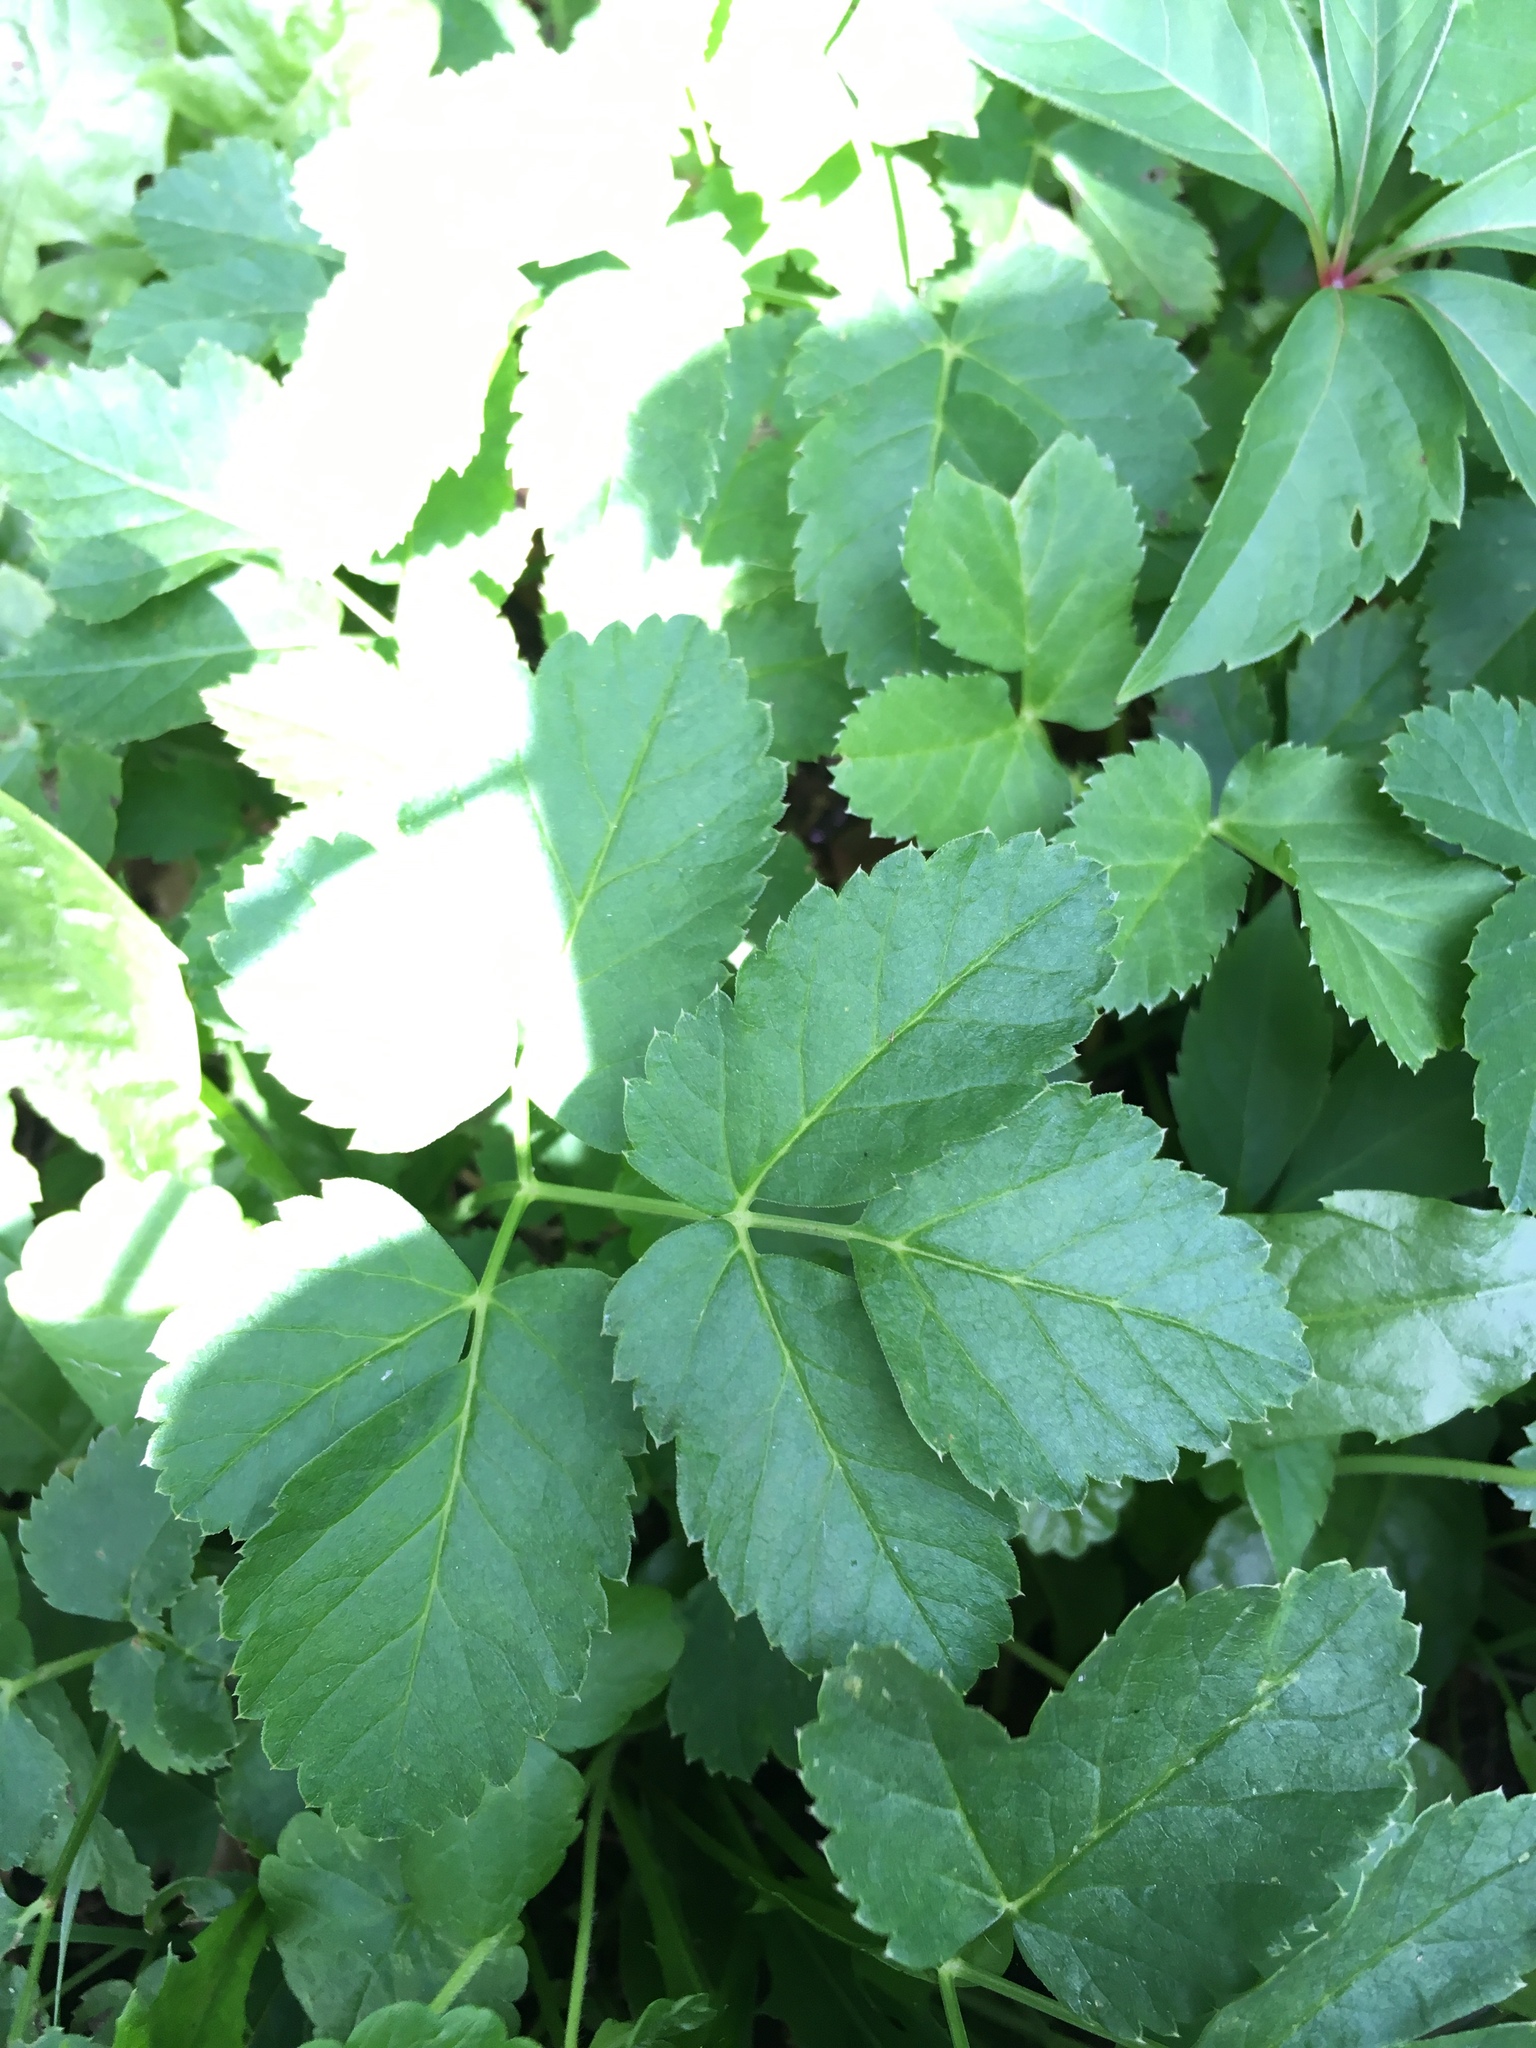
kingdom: Plantae
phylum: Tracheophyta
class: Magnoliopsida
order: Apiales
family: Apiaceae
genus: Aegopodium
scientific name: Aegopodium podagraria
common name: Ground-elder
